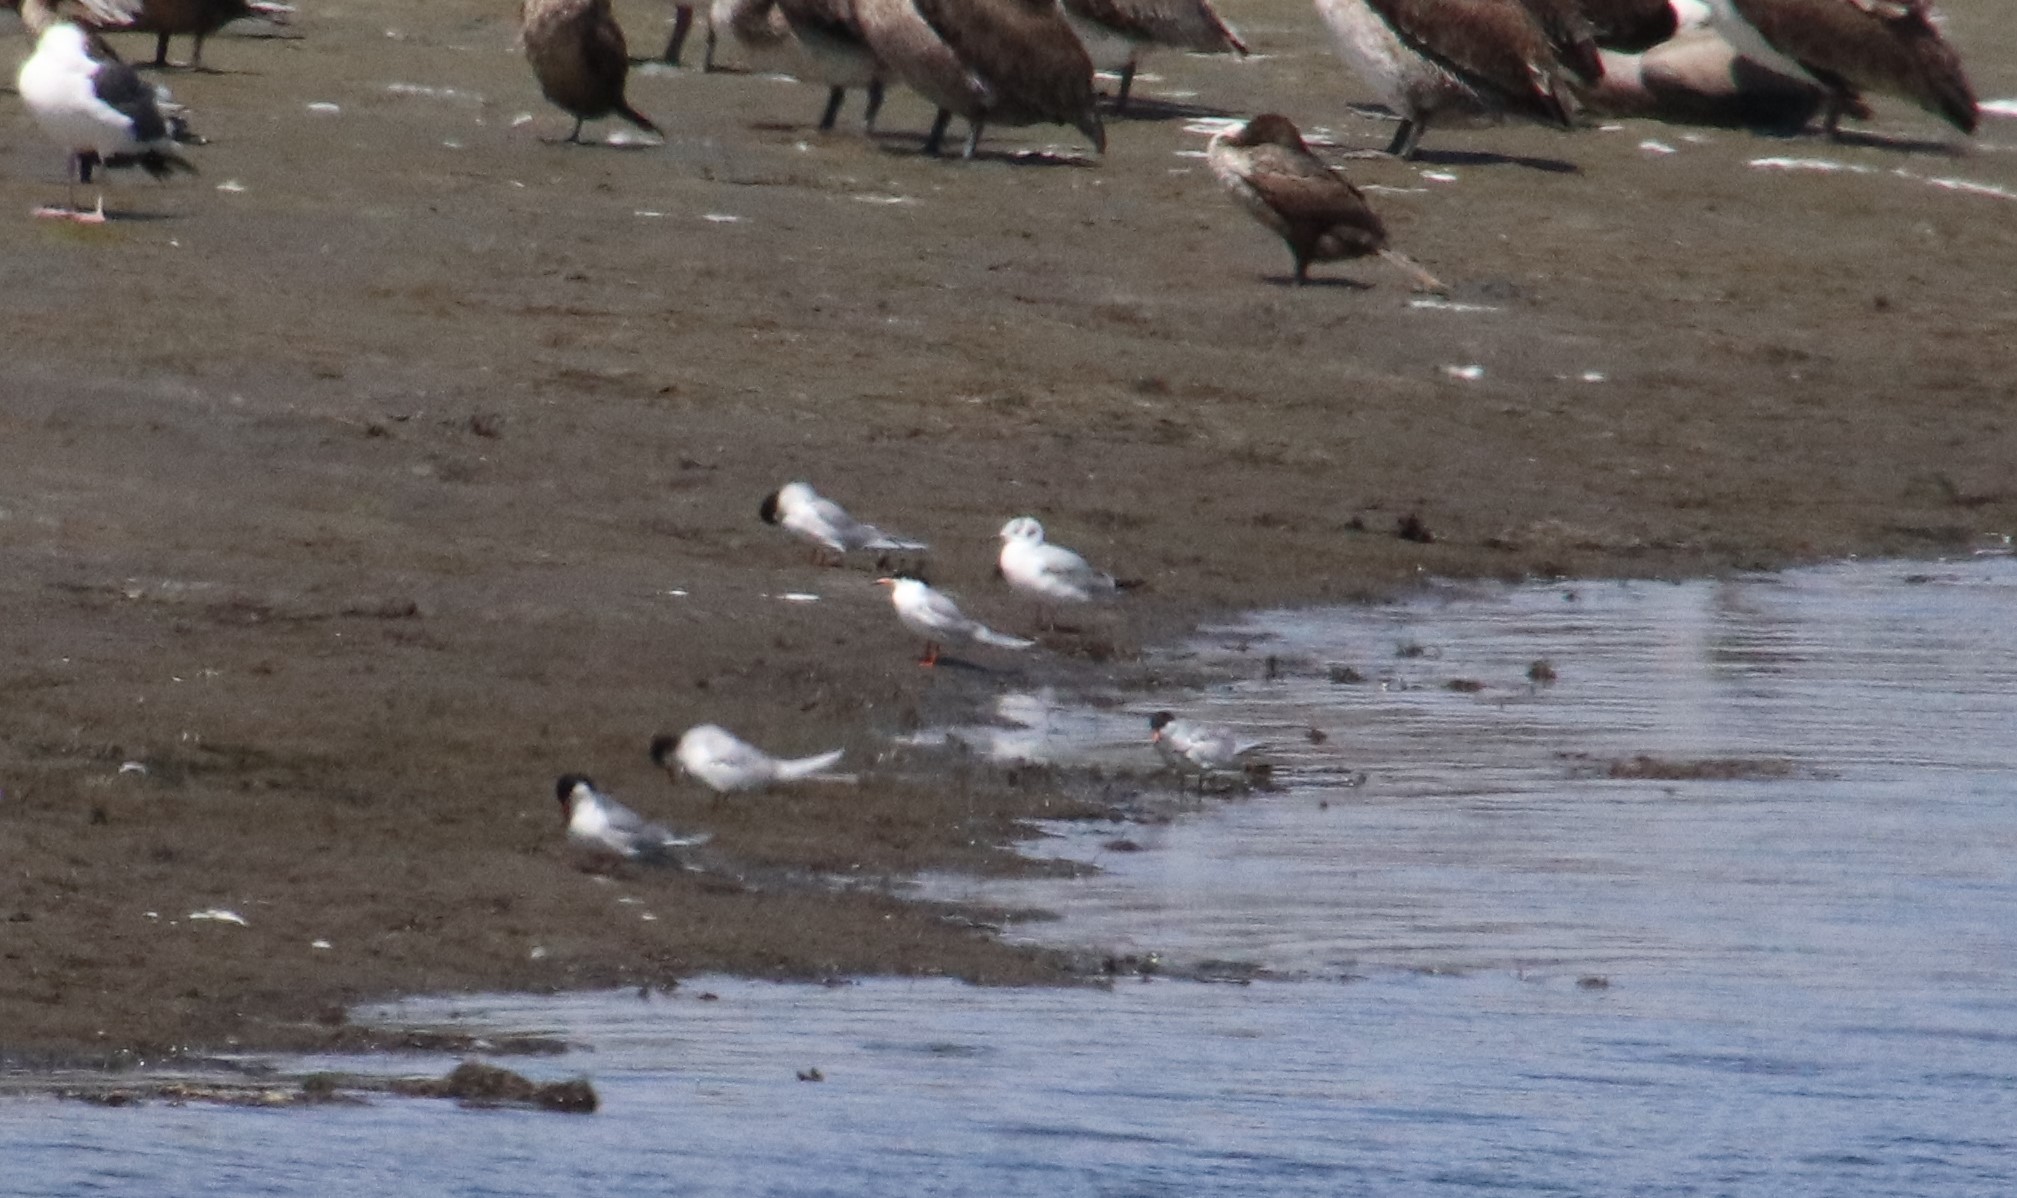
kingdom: Animalia
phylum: Chordata
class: Aves
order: Charadriiformes
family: Laridae
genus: Chroicocephalus
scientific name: Chroicocephalus philadelphia
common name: Bonaparte's gull
